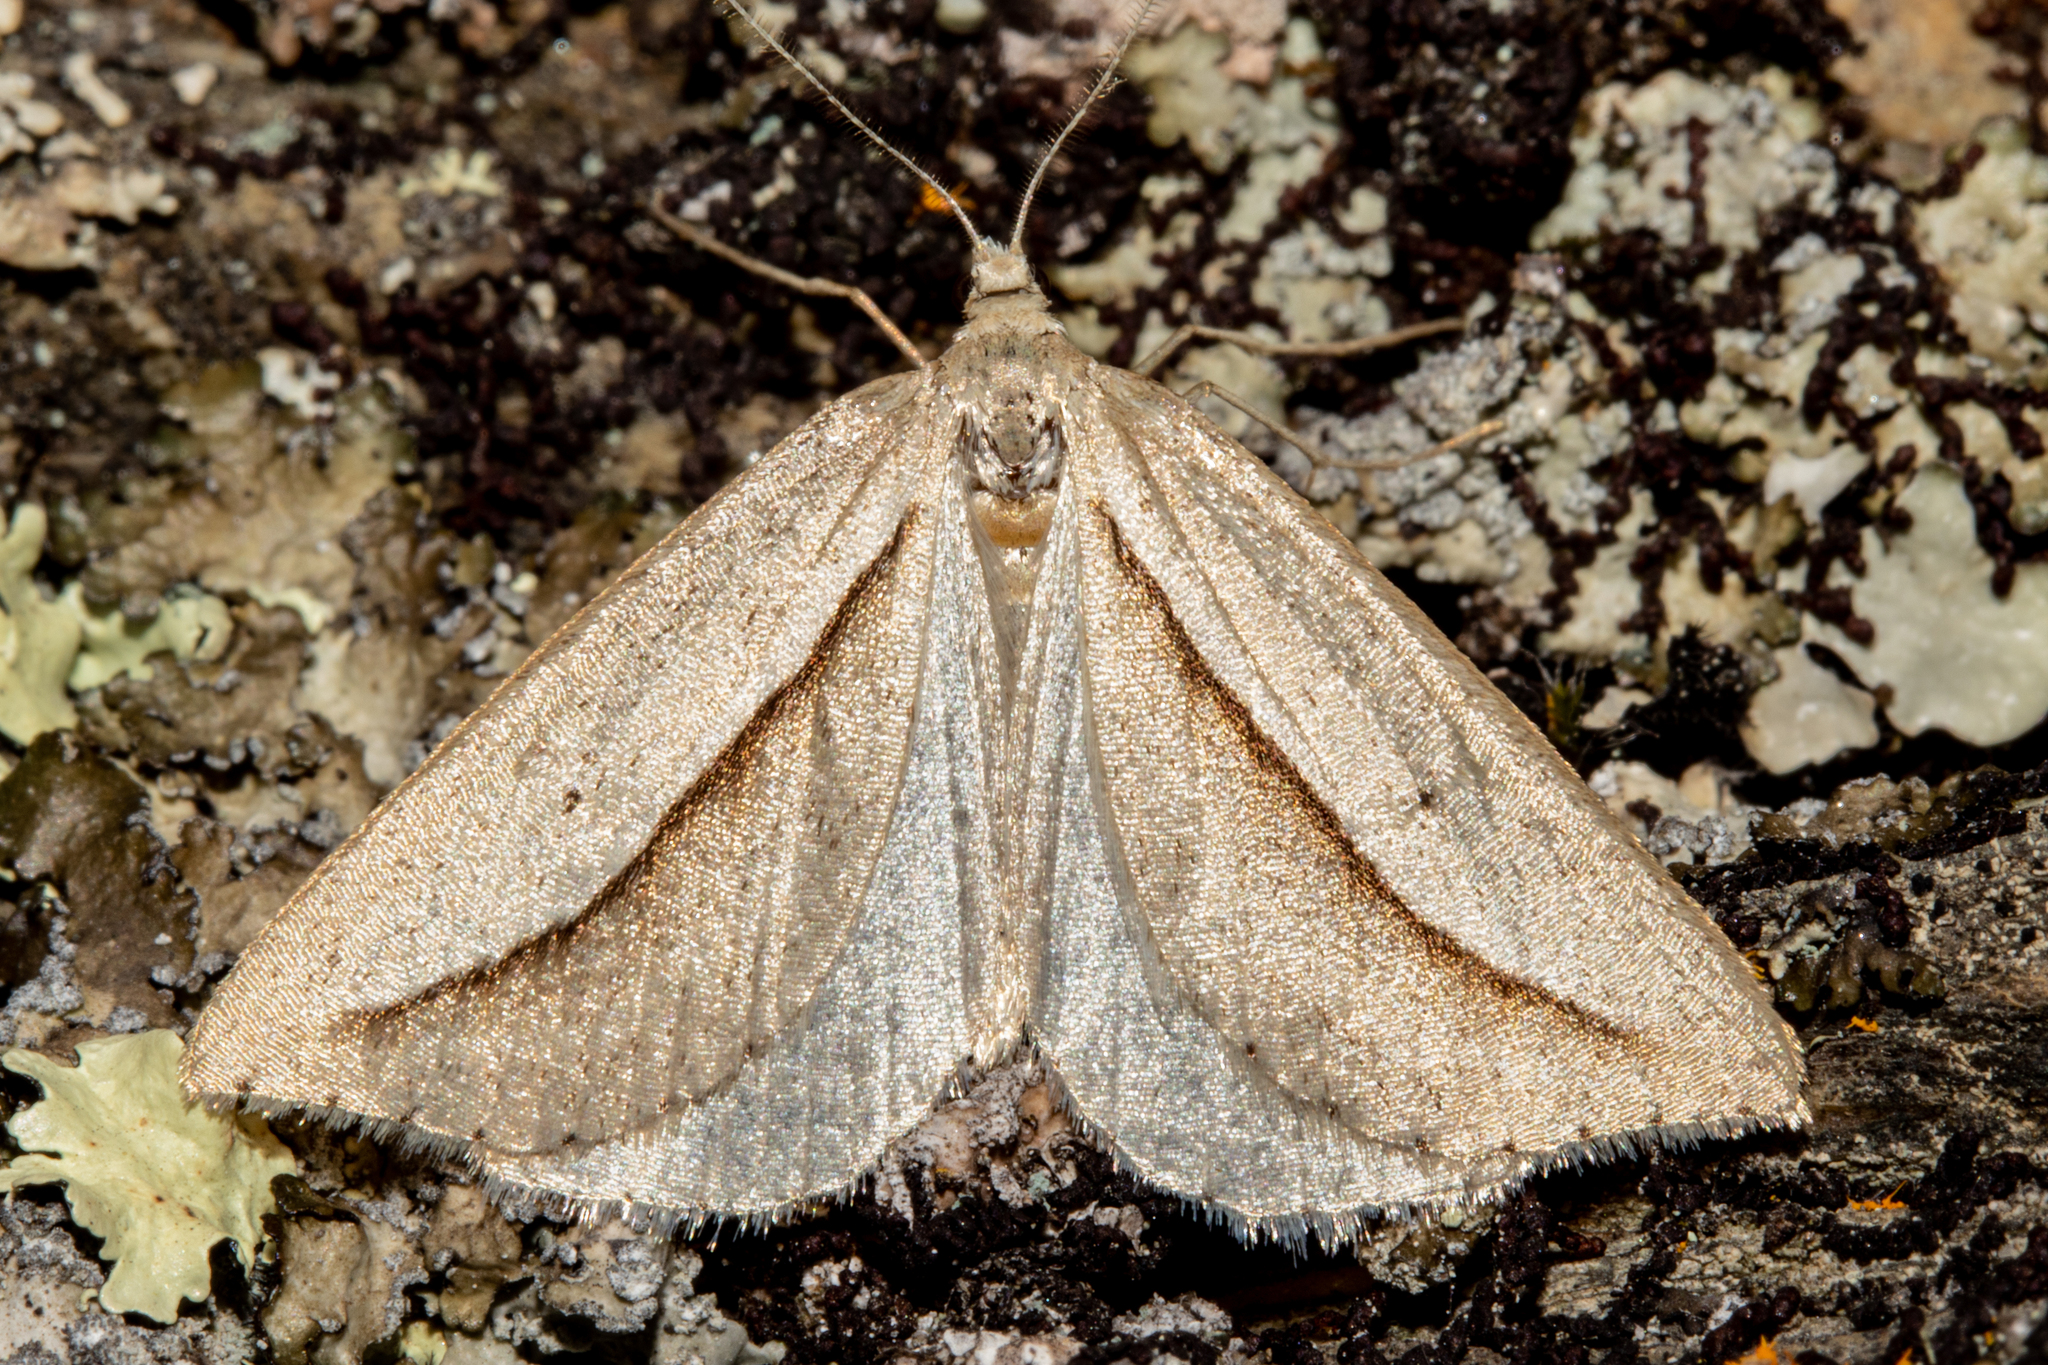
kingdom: Animalia
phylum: Arthropoda
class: Insecta
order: Lepidoptera
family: Geometridae
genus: Theoxena
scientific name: Theoxena scissaria
